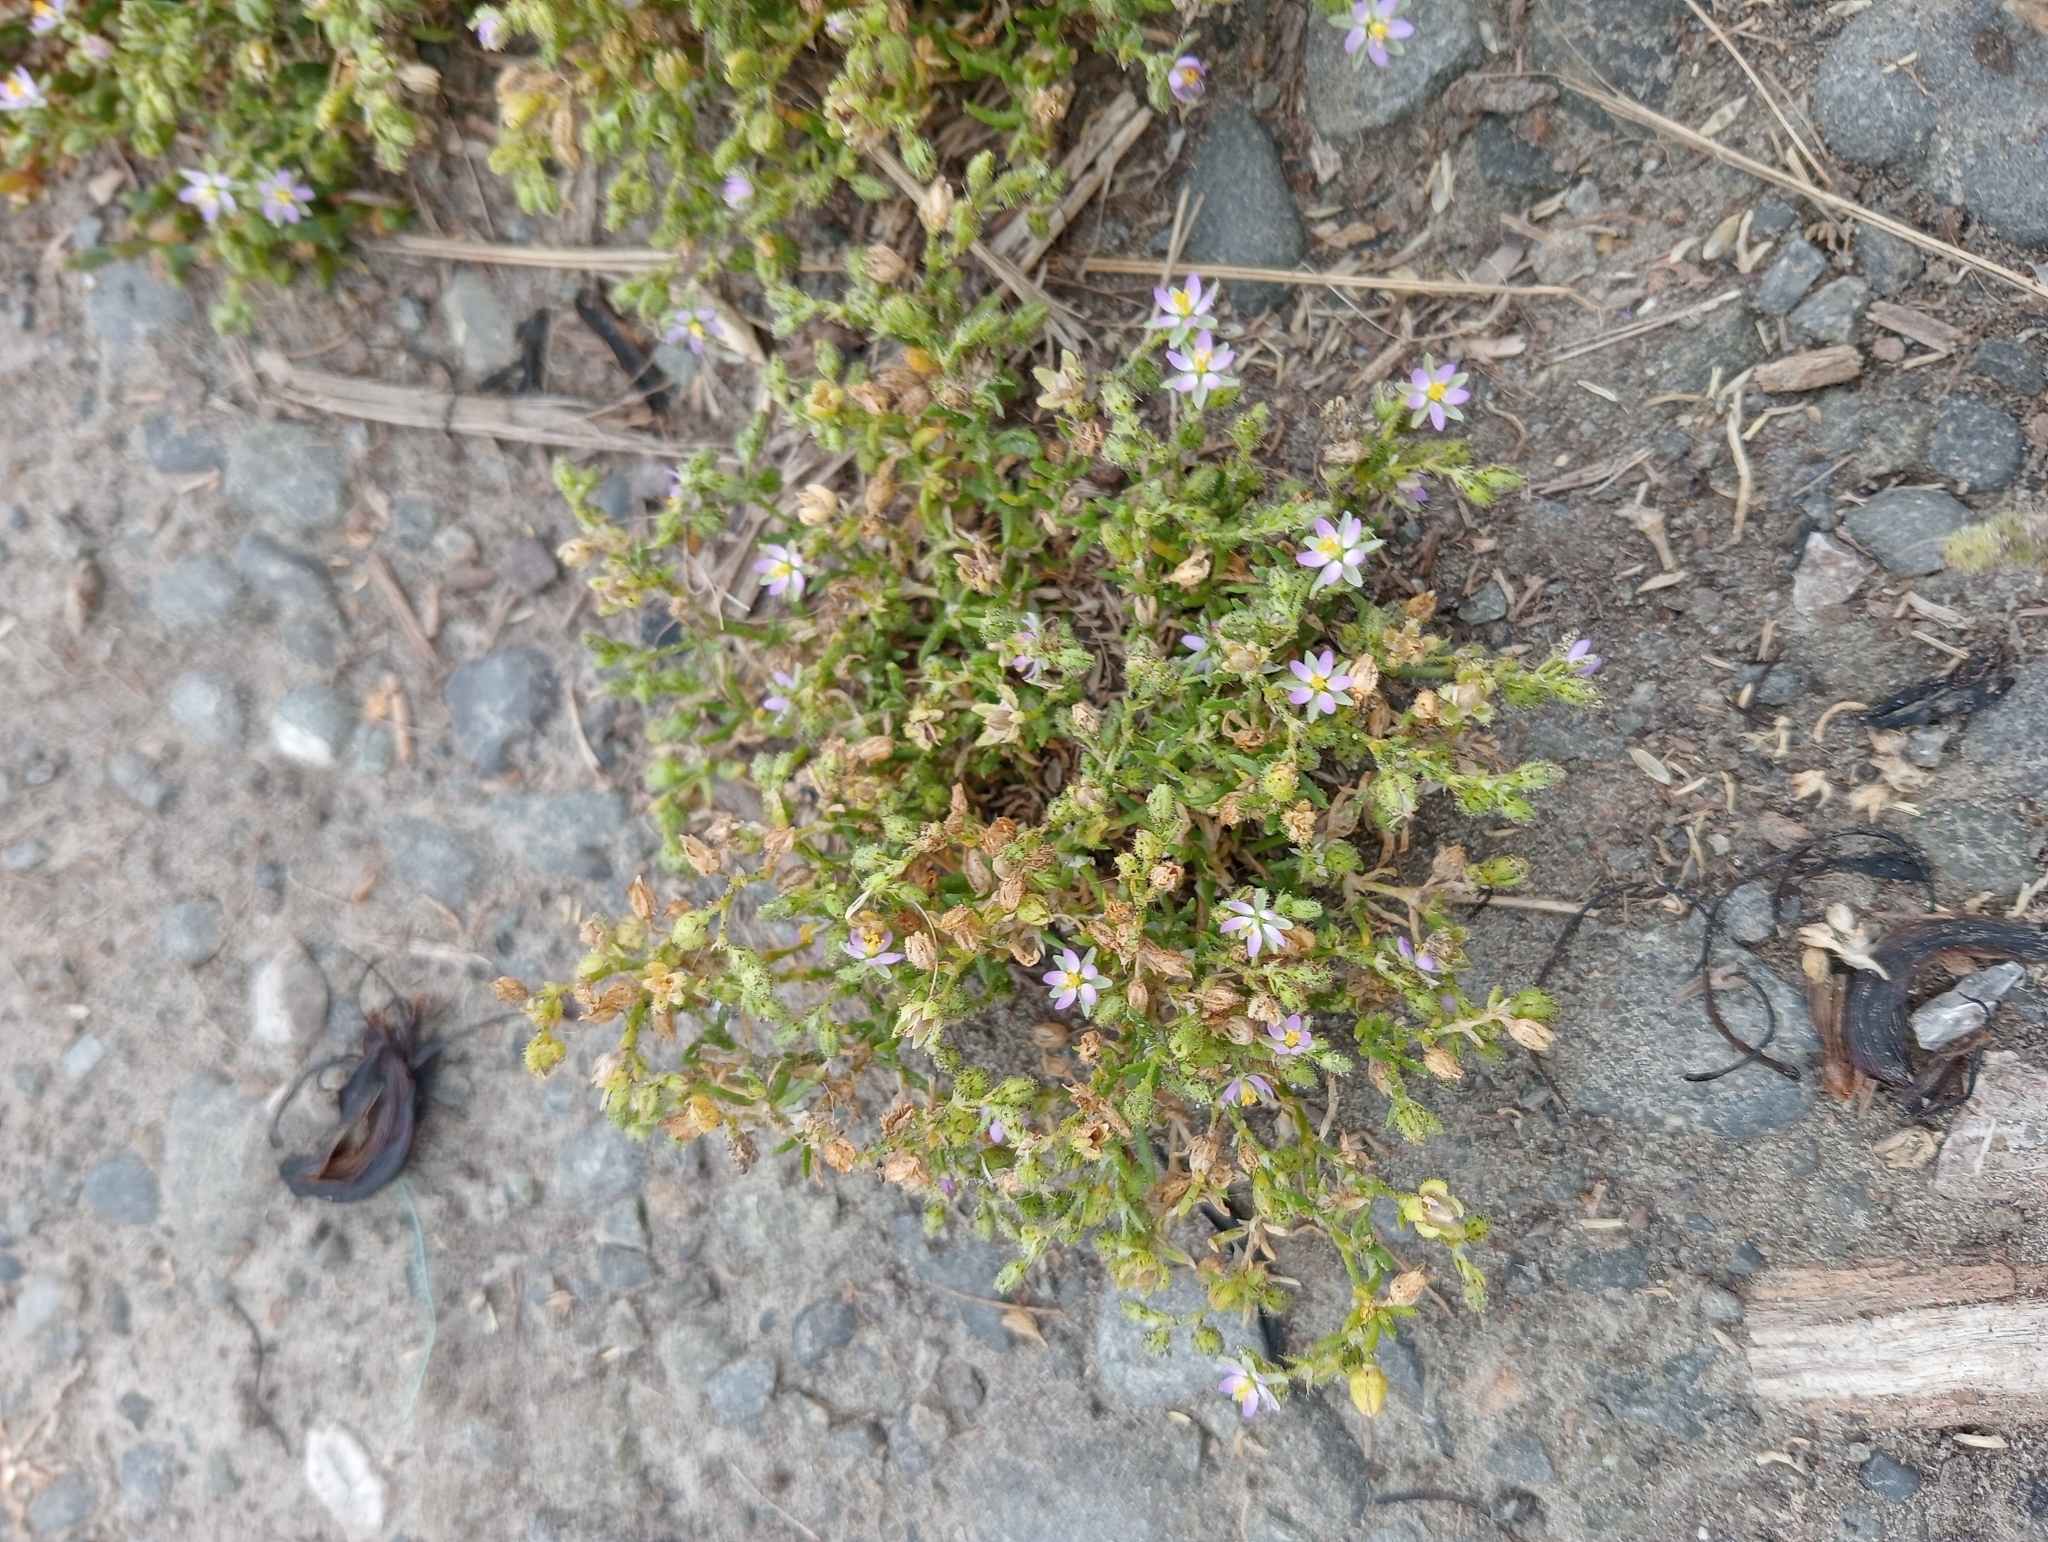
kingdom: Plantae
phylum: Tracheophyta
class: Magnoliopsida
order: Caryophyllales
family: Caryophyllaceae
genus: Spergularia
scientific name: Spergularia rubra
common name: Red sand-spurrey
